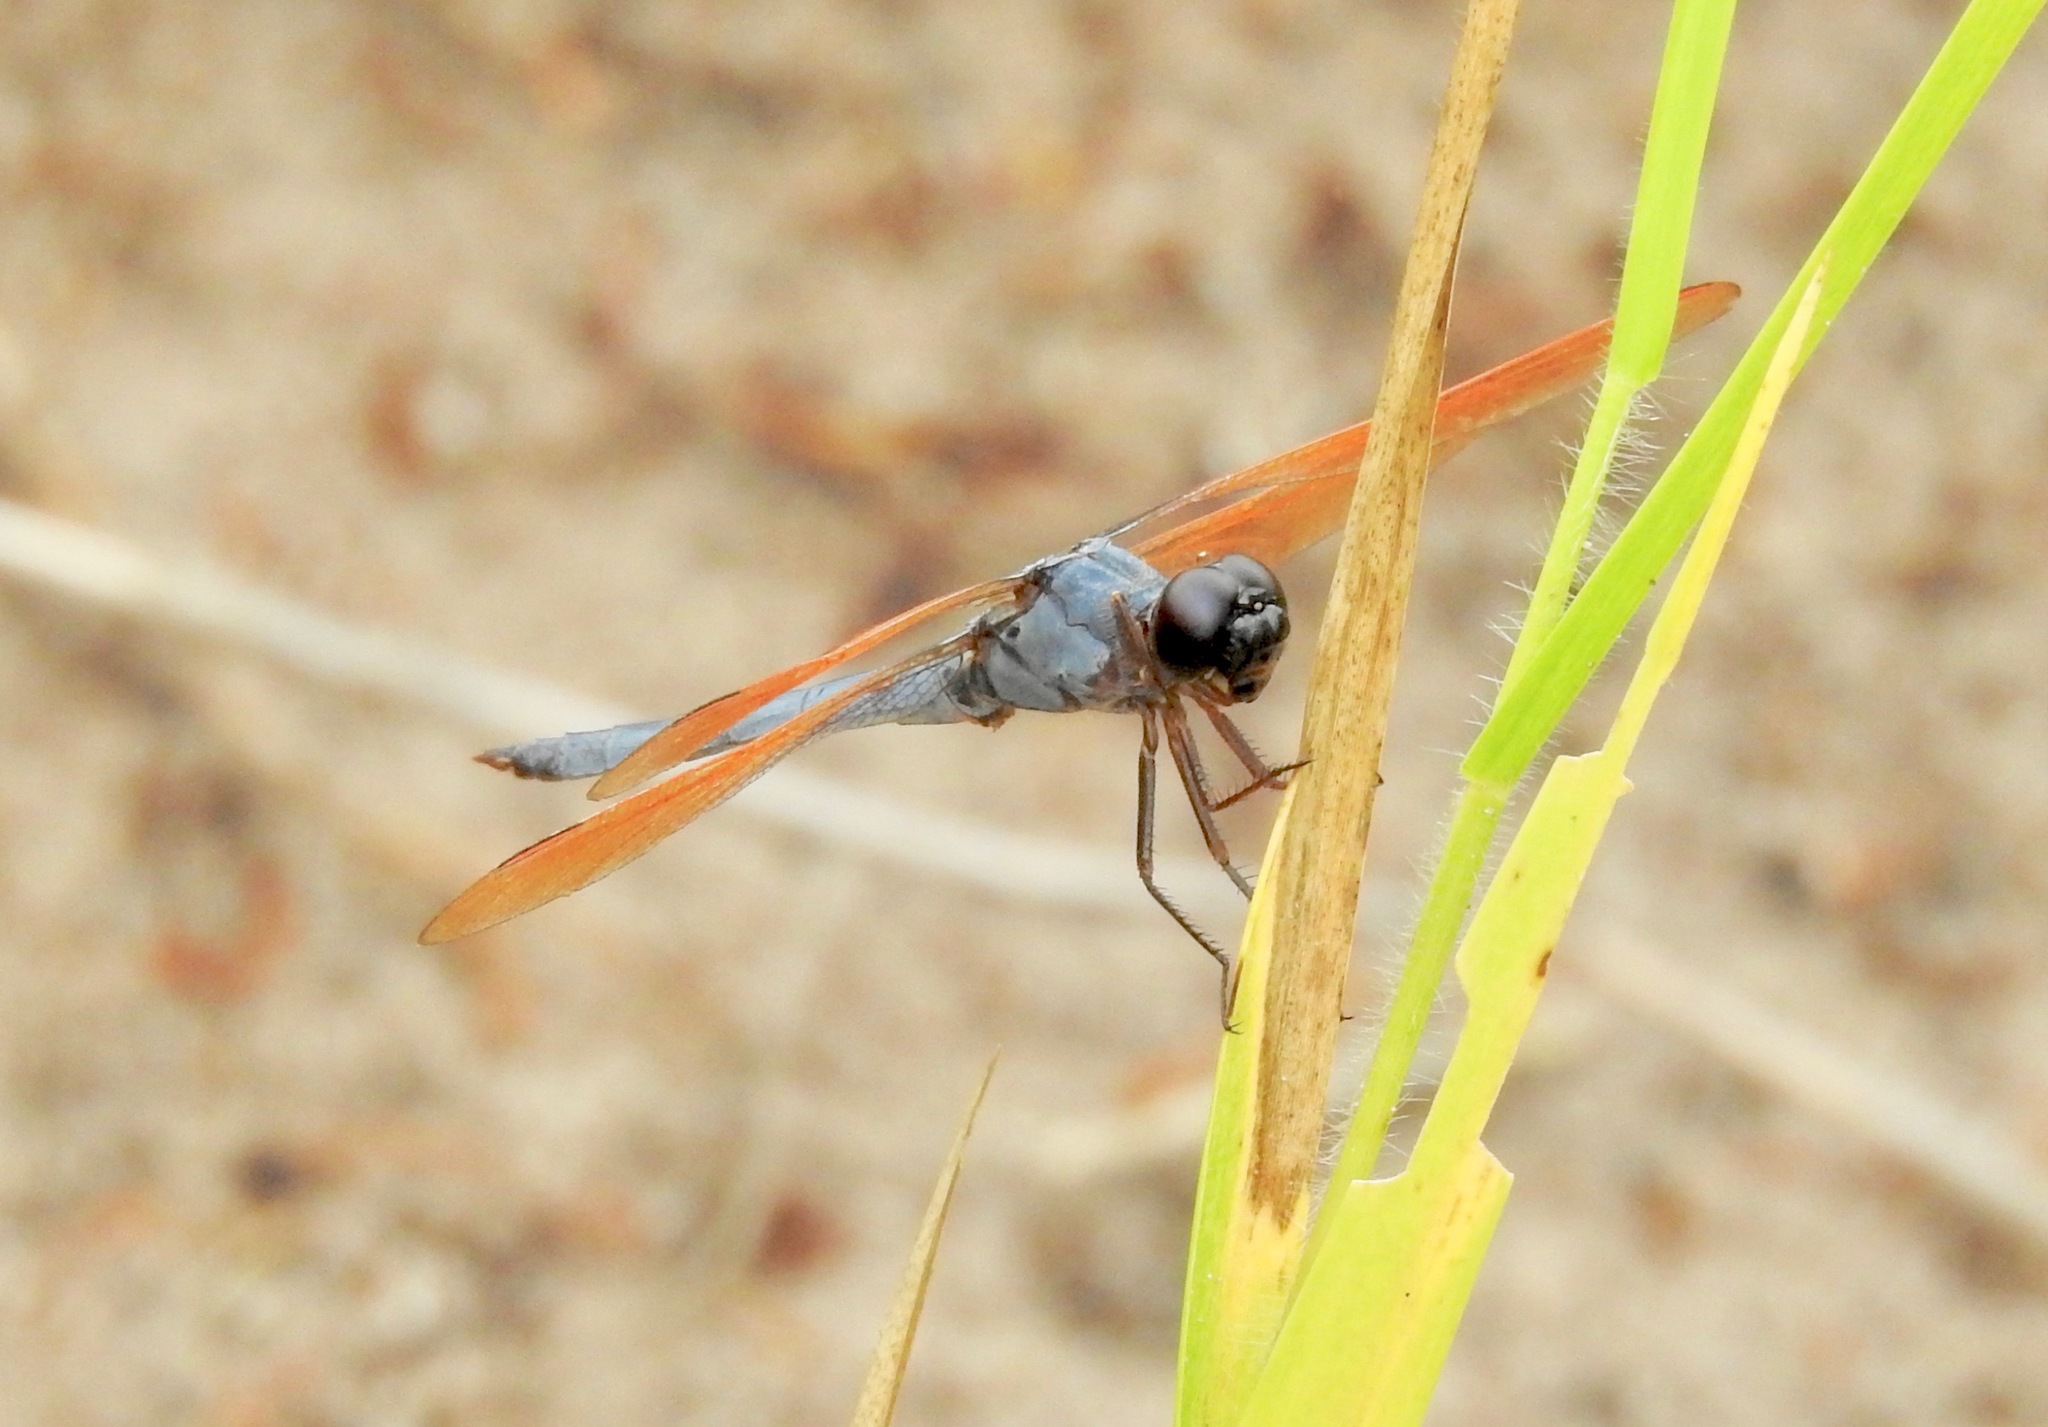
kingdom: Animalia
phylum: Arthropoda
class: Insecta
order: Odonata
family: Libellulidae
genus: Libellula
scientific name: Libellula jesseana
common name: Purple skimmer
